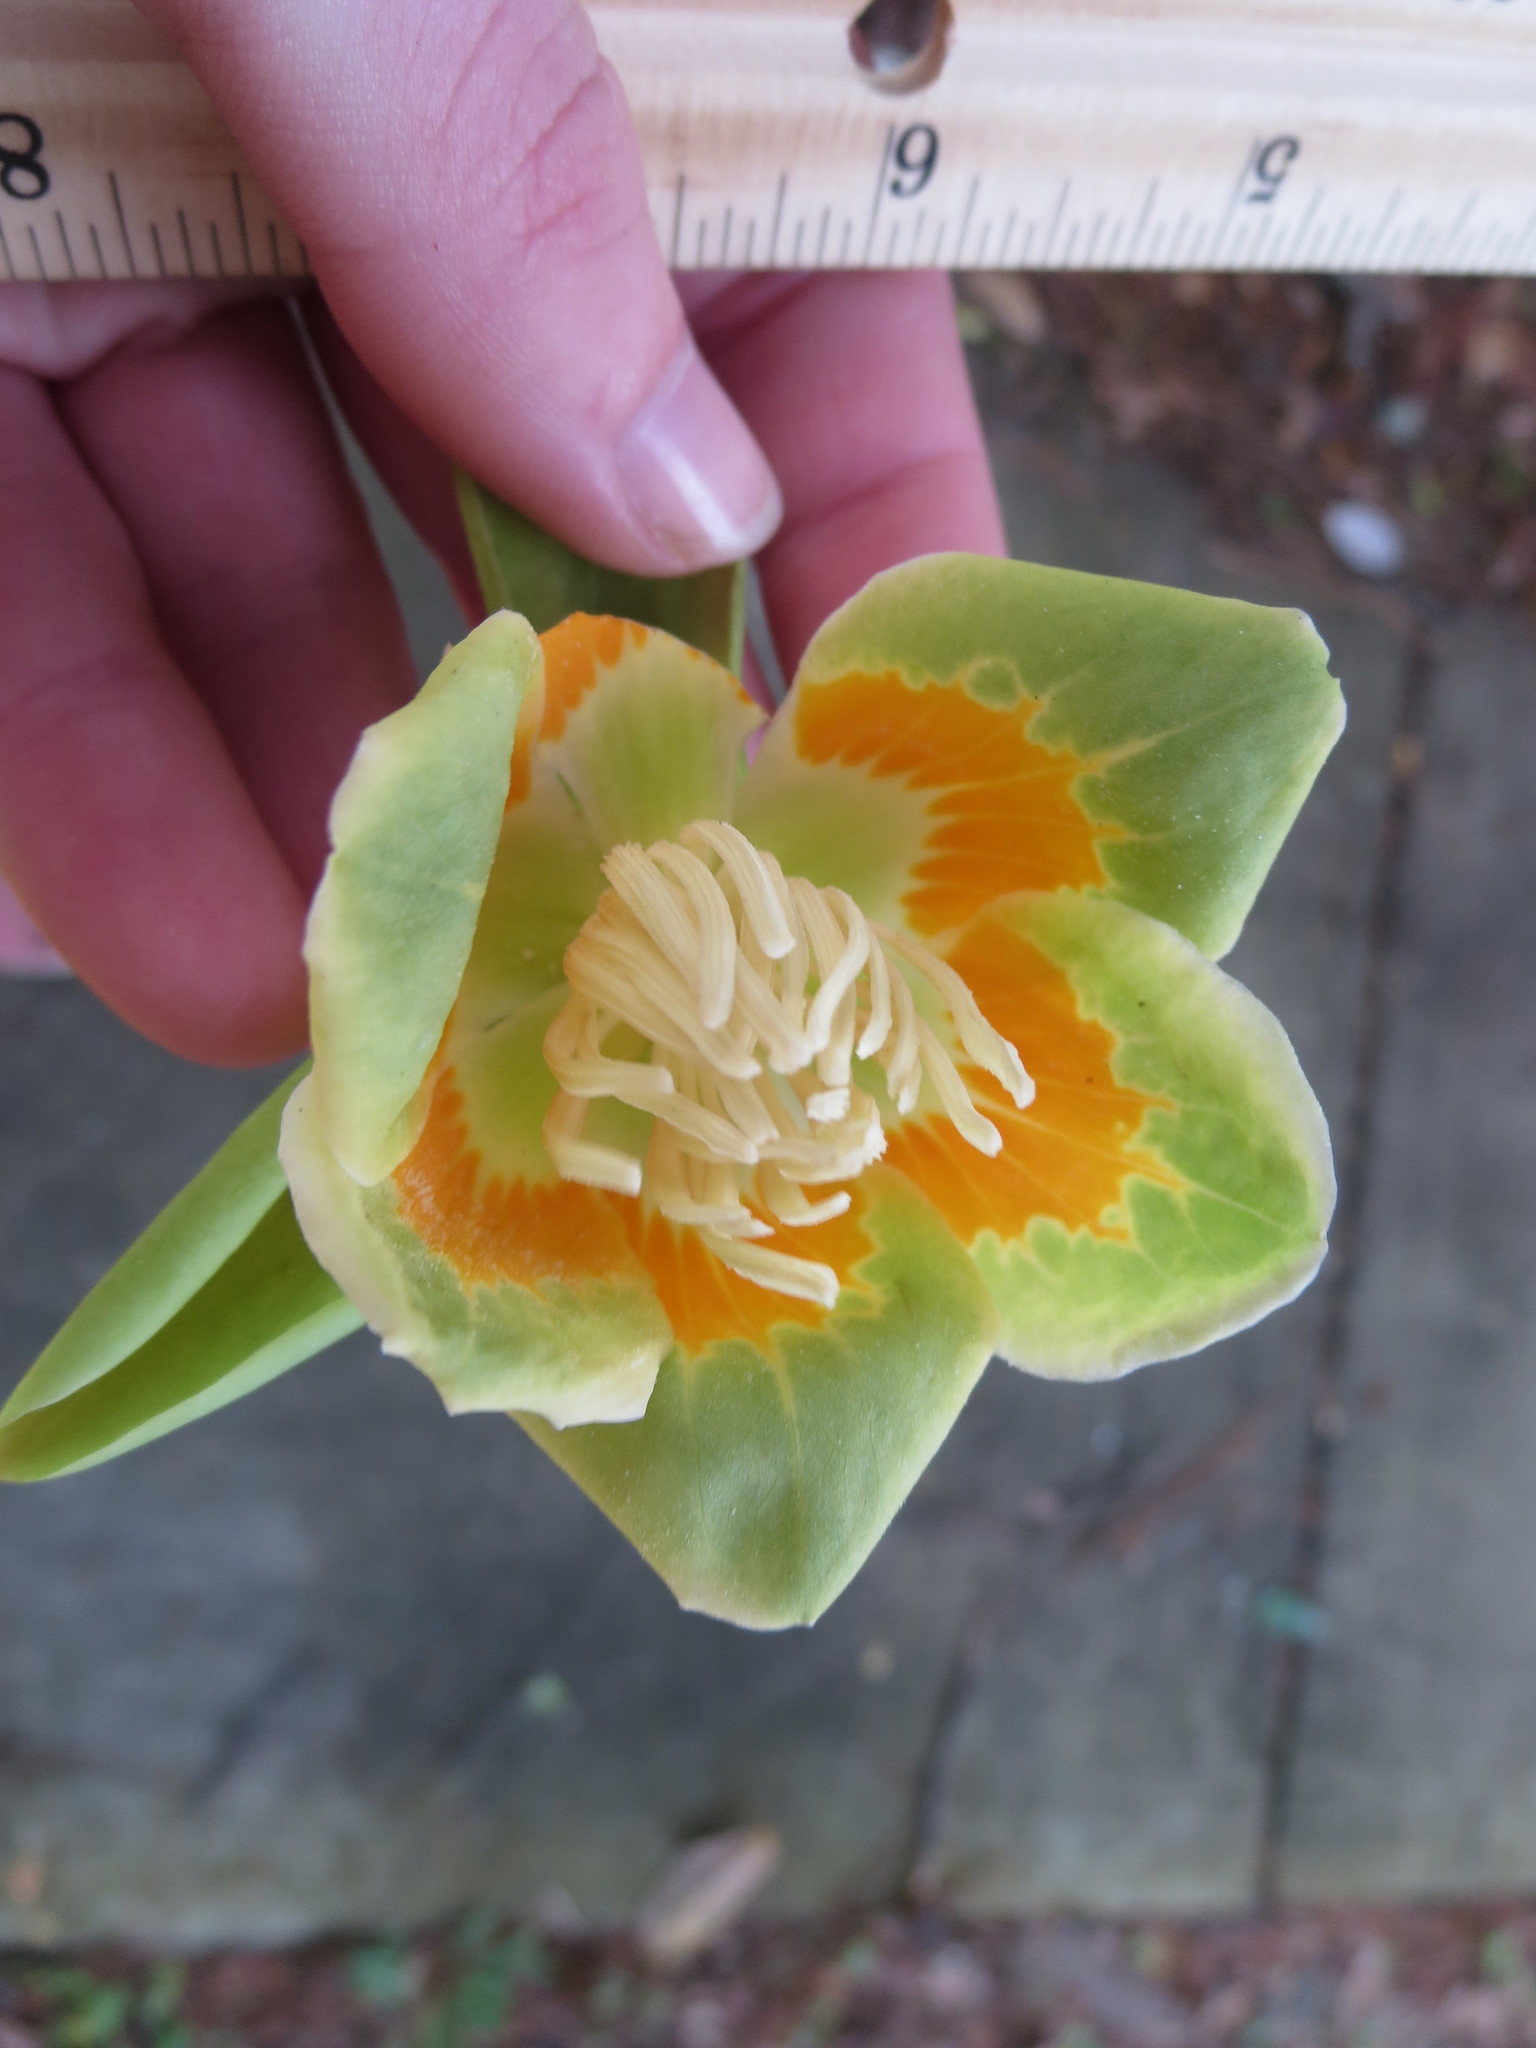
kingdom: Plantae
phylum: Tracheophyta
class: Magnoliopsida
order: Magnoliales
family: Magnoliaceae
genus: Liriodendron
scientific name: Liriodendron tulipifera
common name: Tulip tree
